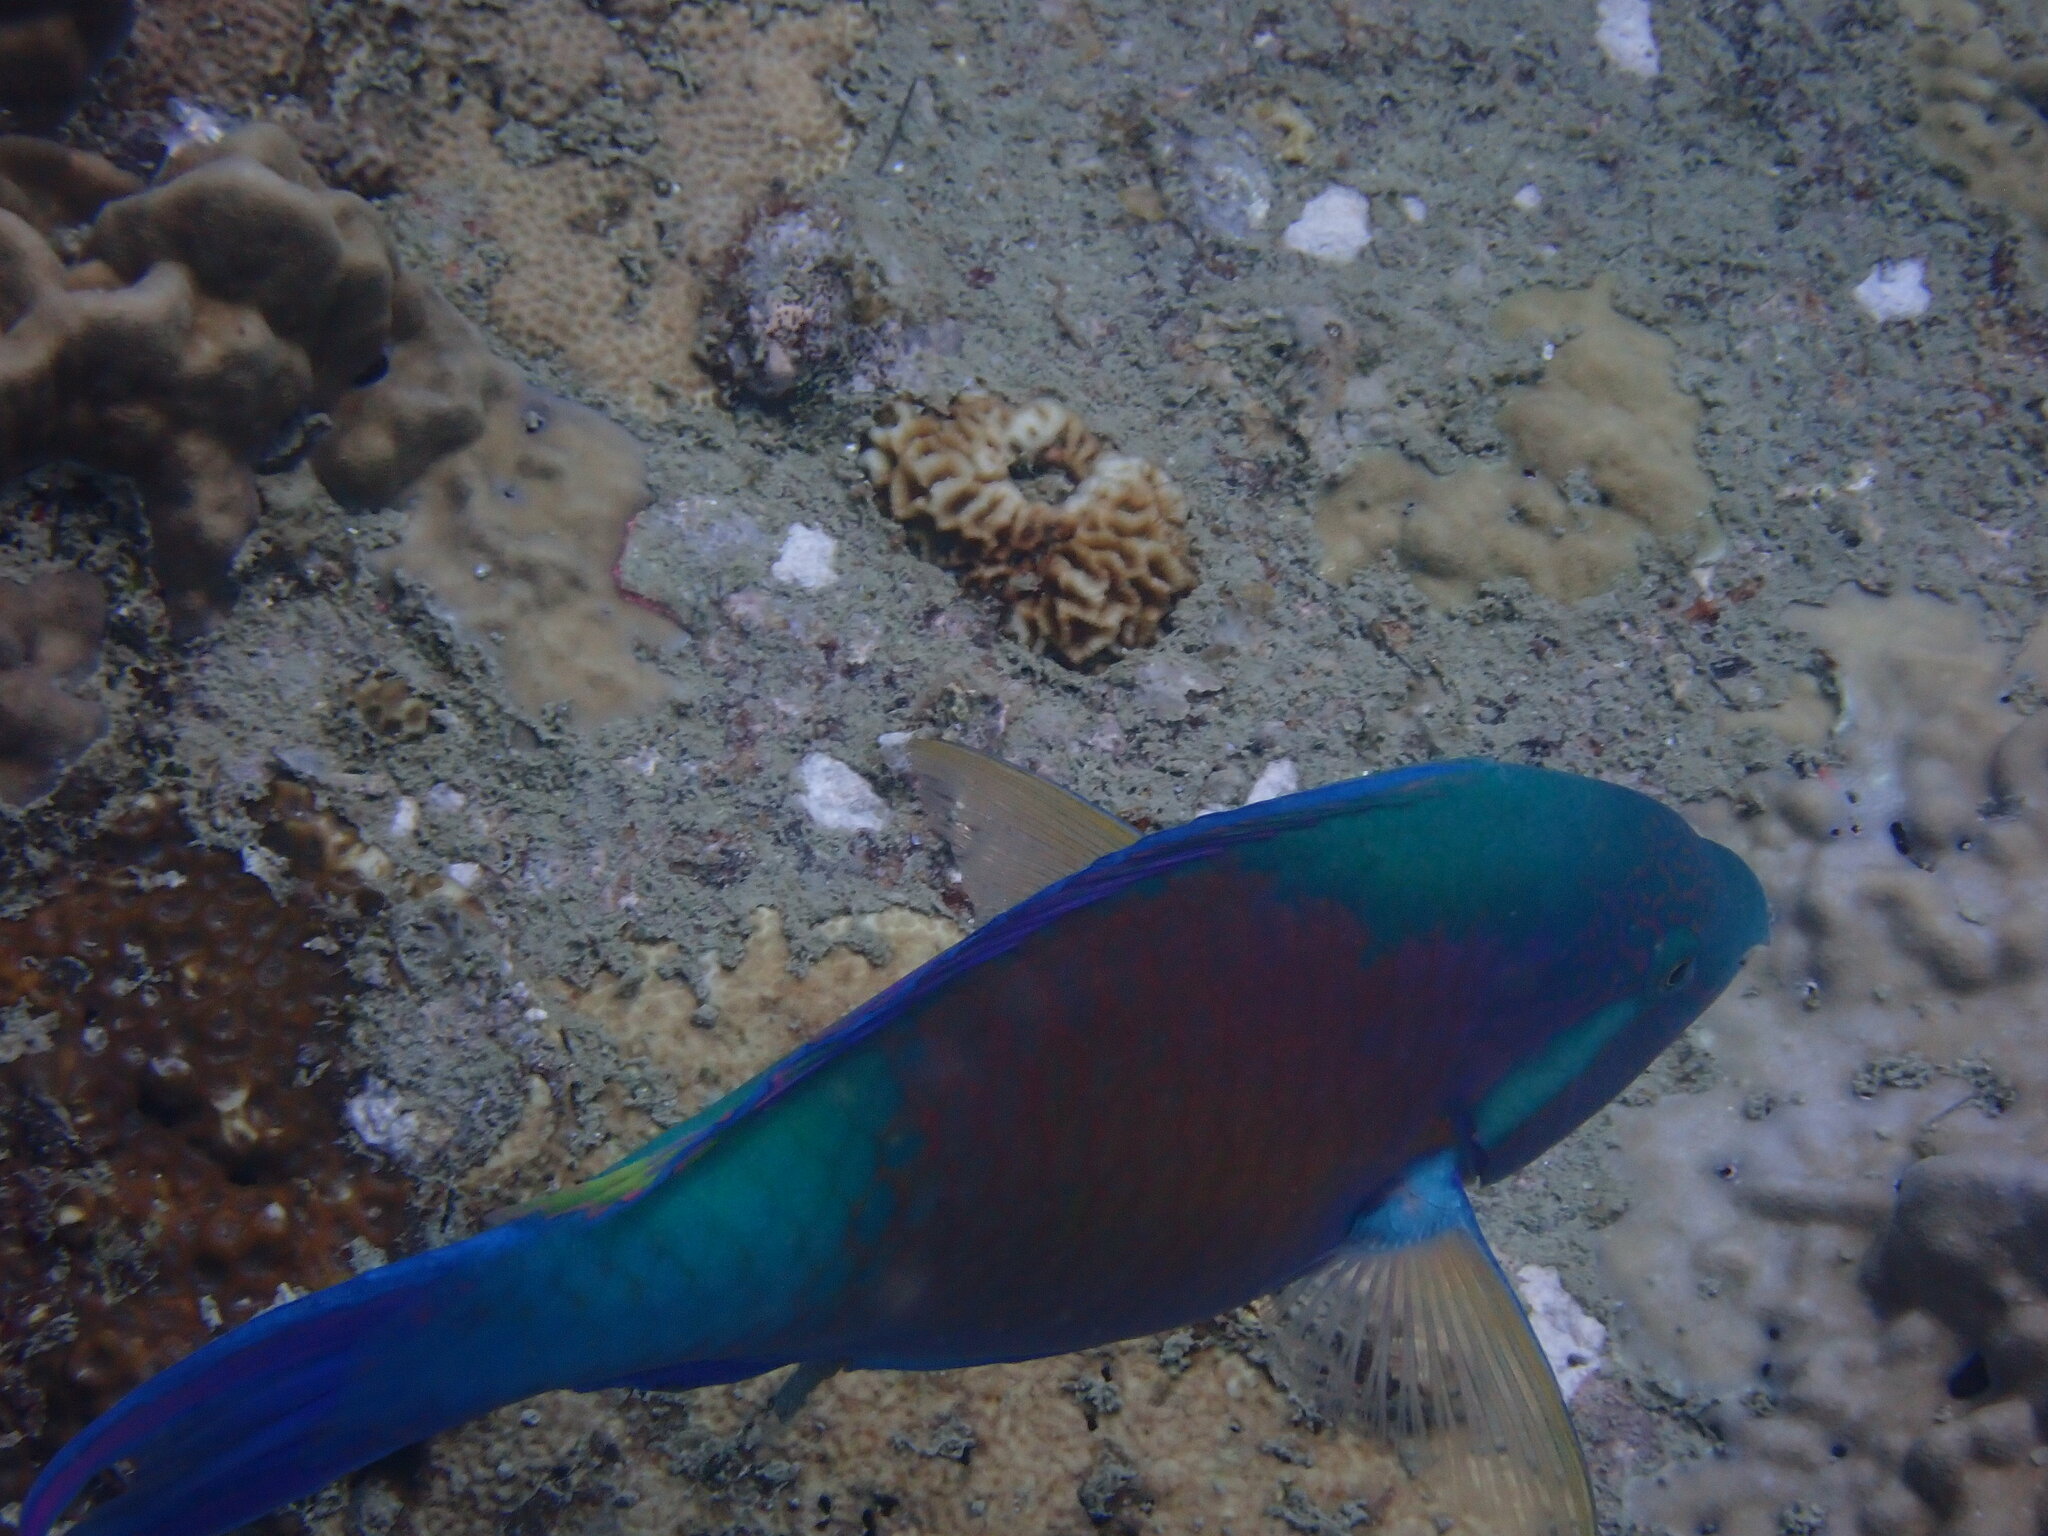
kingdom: Animalia
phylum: Chordata
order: Perciformes
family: Scaridae
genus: Scarus
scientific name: Scarus hypselopterus
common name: Java parrotfish
